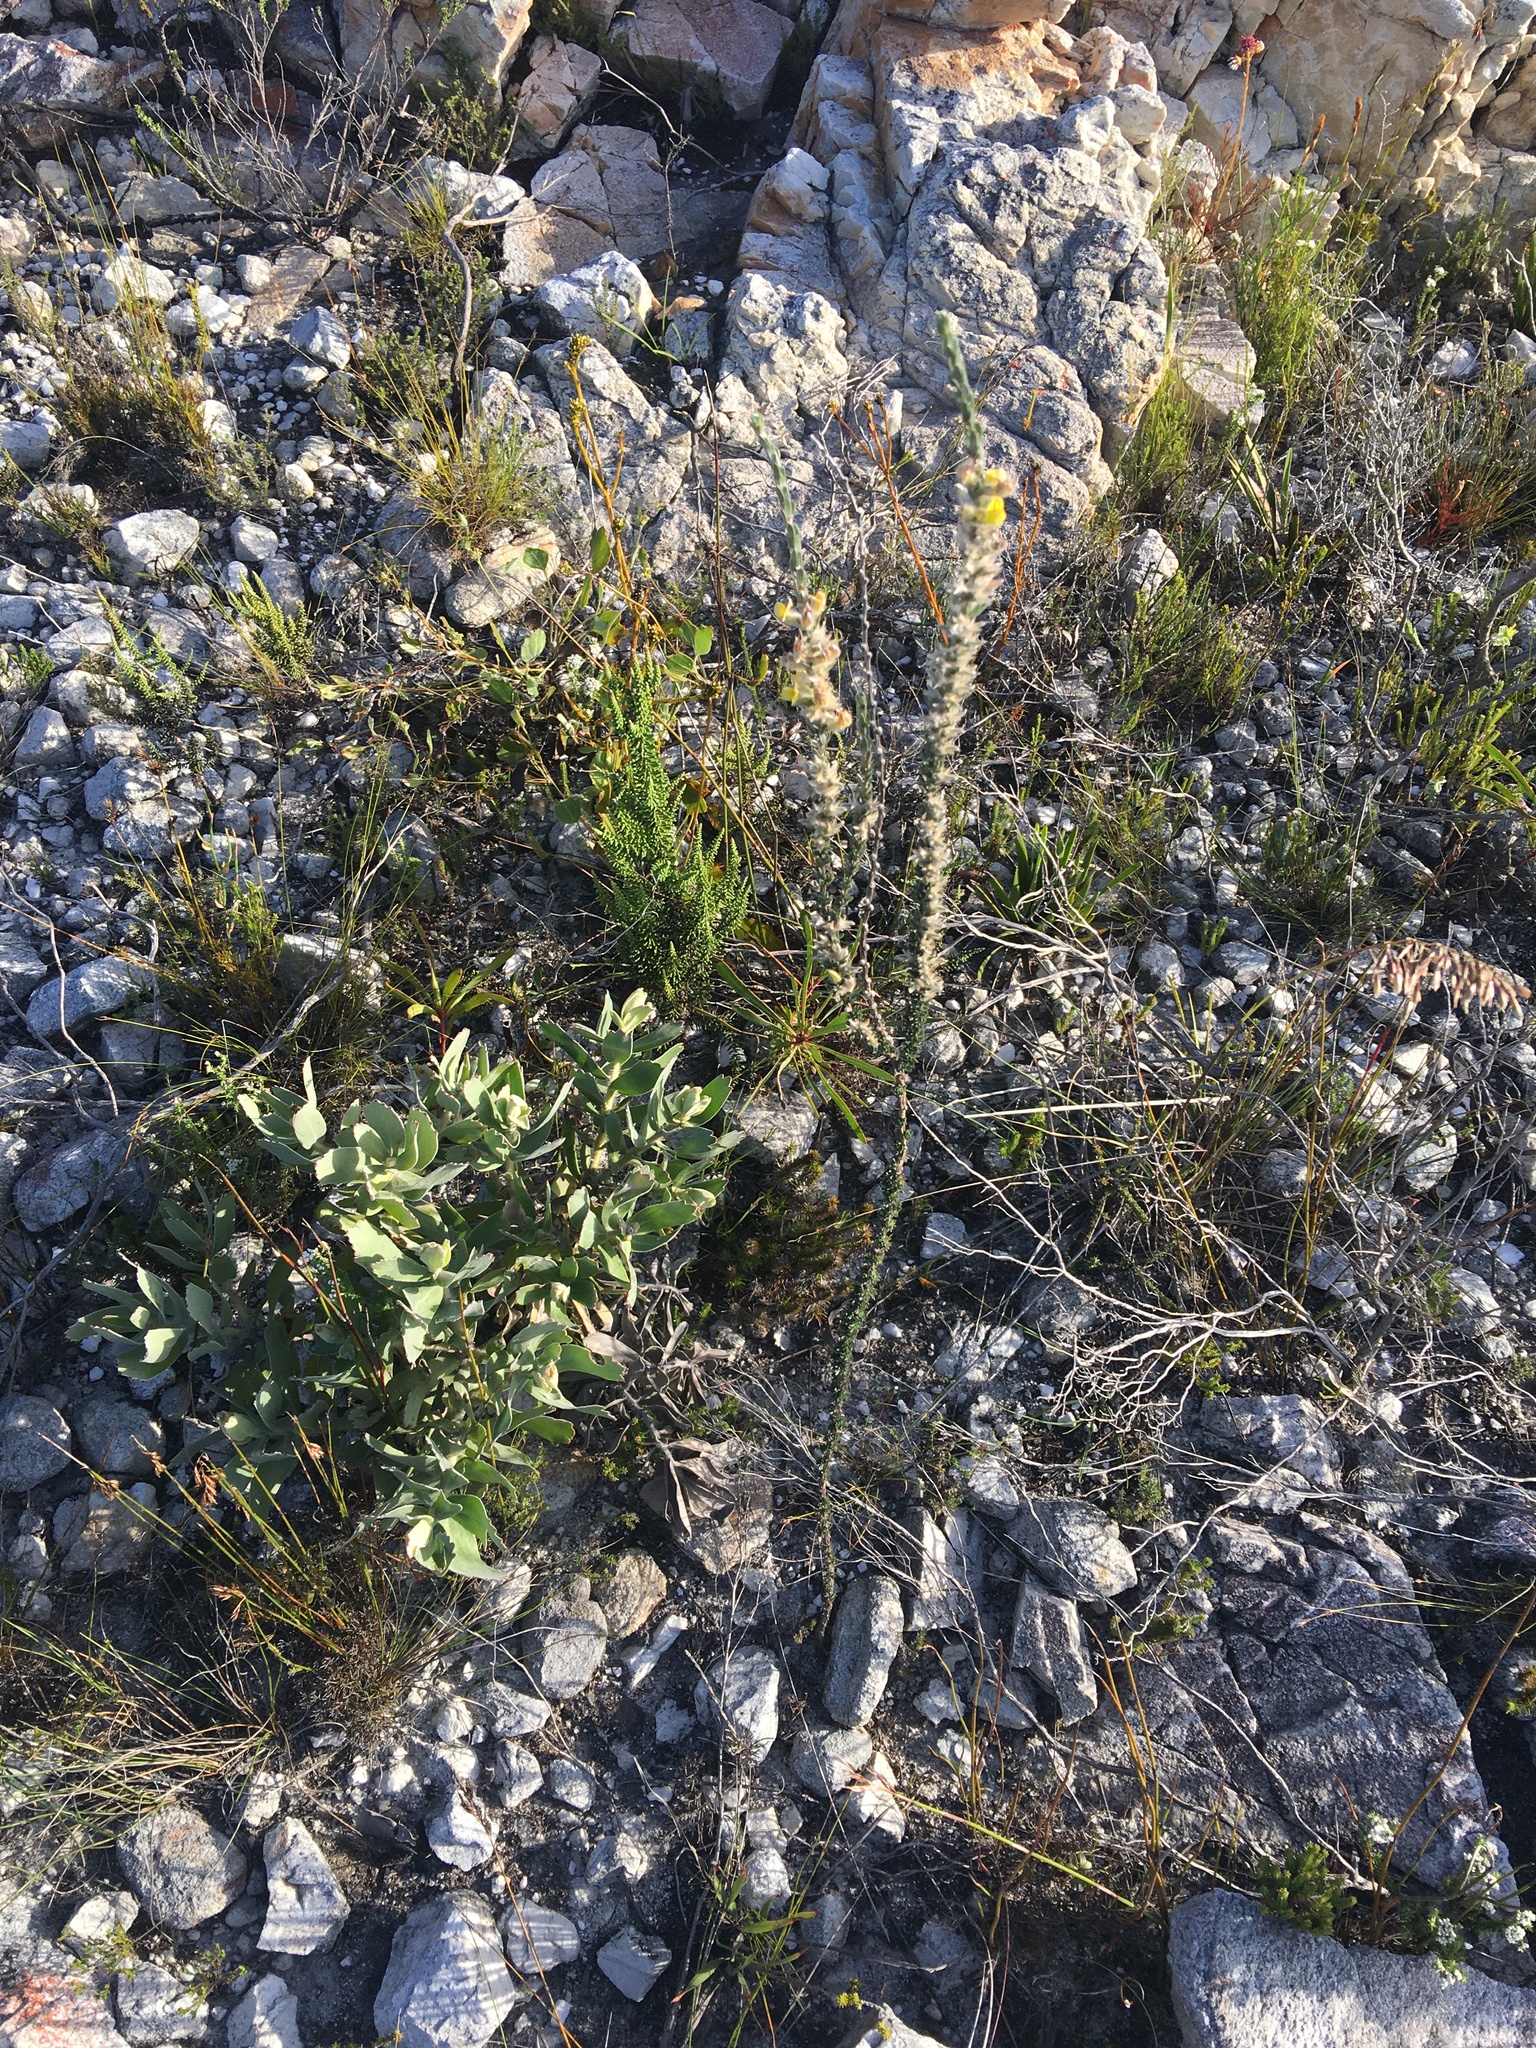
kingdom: Plantae
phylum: Tracheophyta
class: Magnoliopsida
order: Fabales
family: Fabaceae
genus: Aspalathus
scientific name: Aspalathus caledonensis
